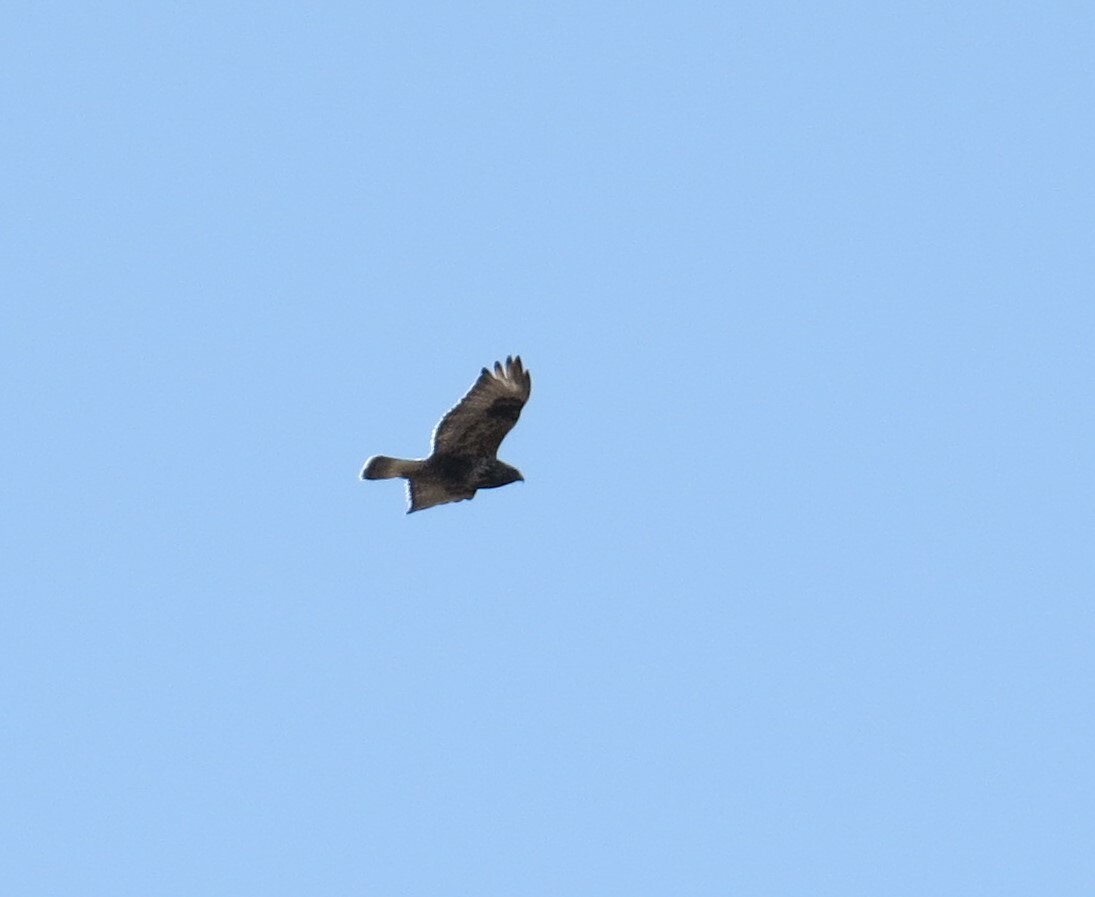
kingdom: Animalia
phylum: Chordata
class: Aves
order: Accipitriformes
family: Accipitridae
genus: Buteo
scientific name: Buteo lagopus
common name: Rough-legged buzzard
